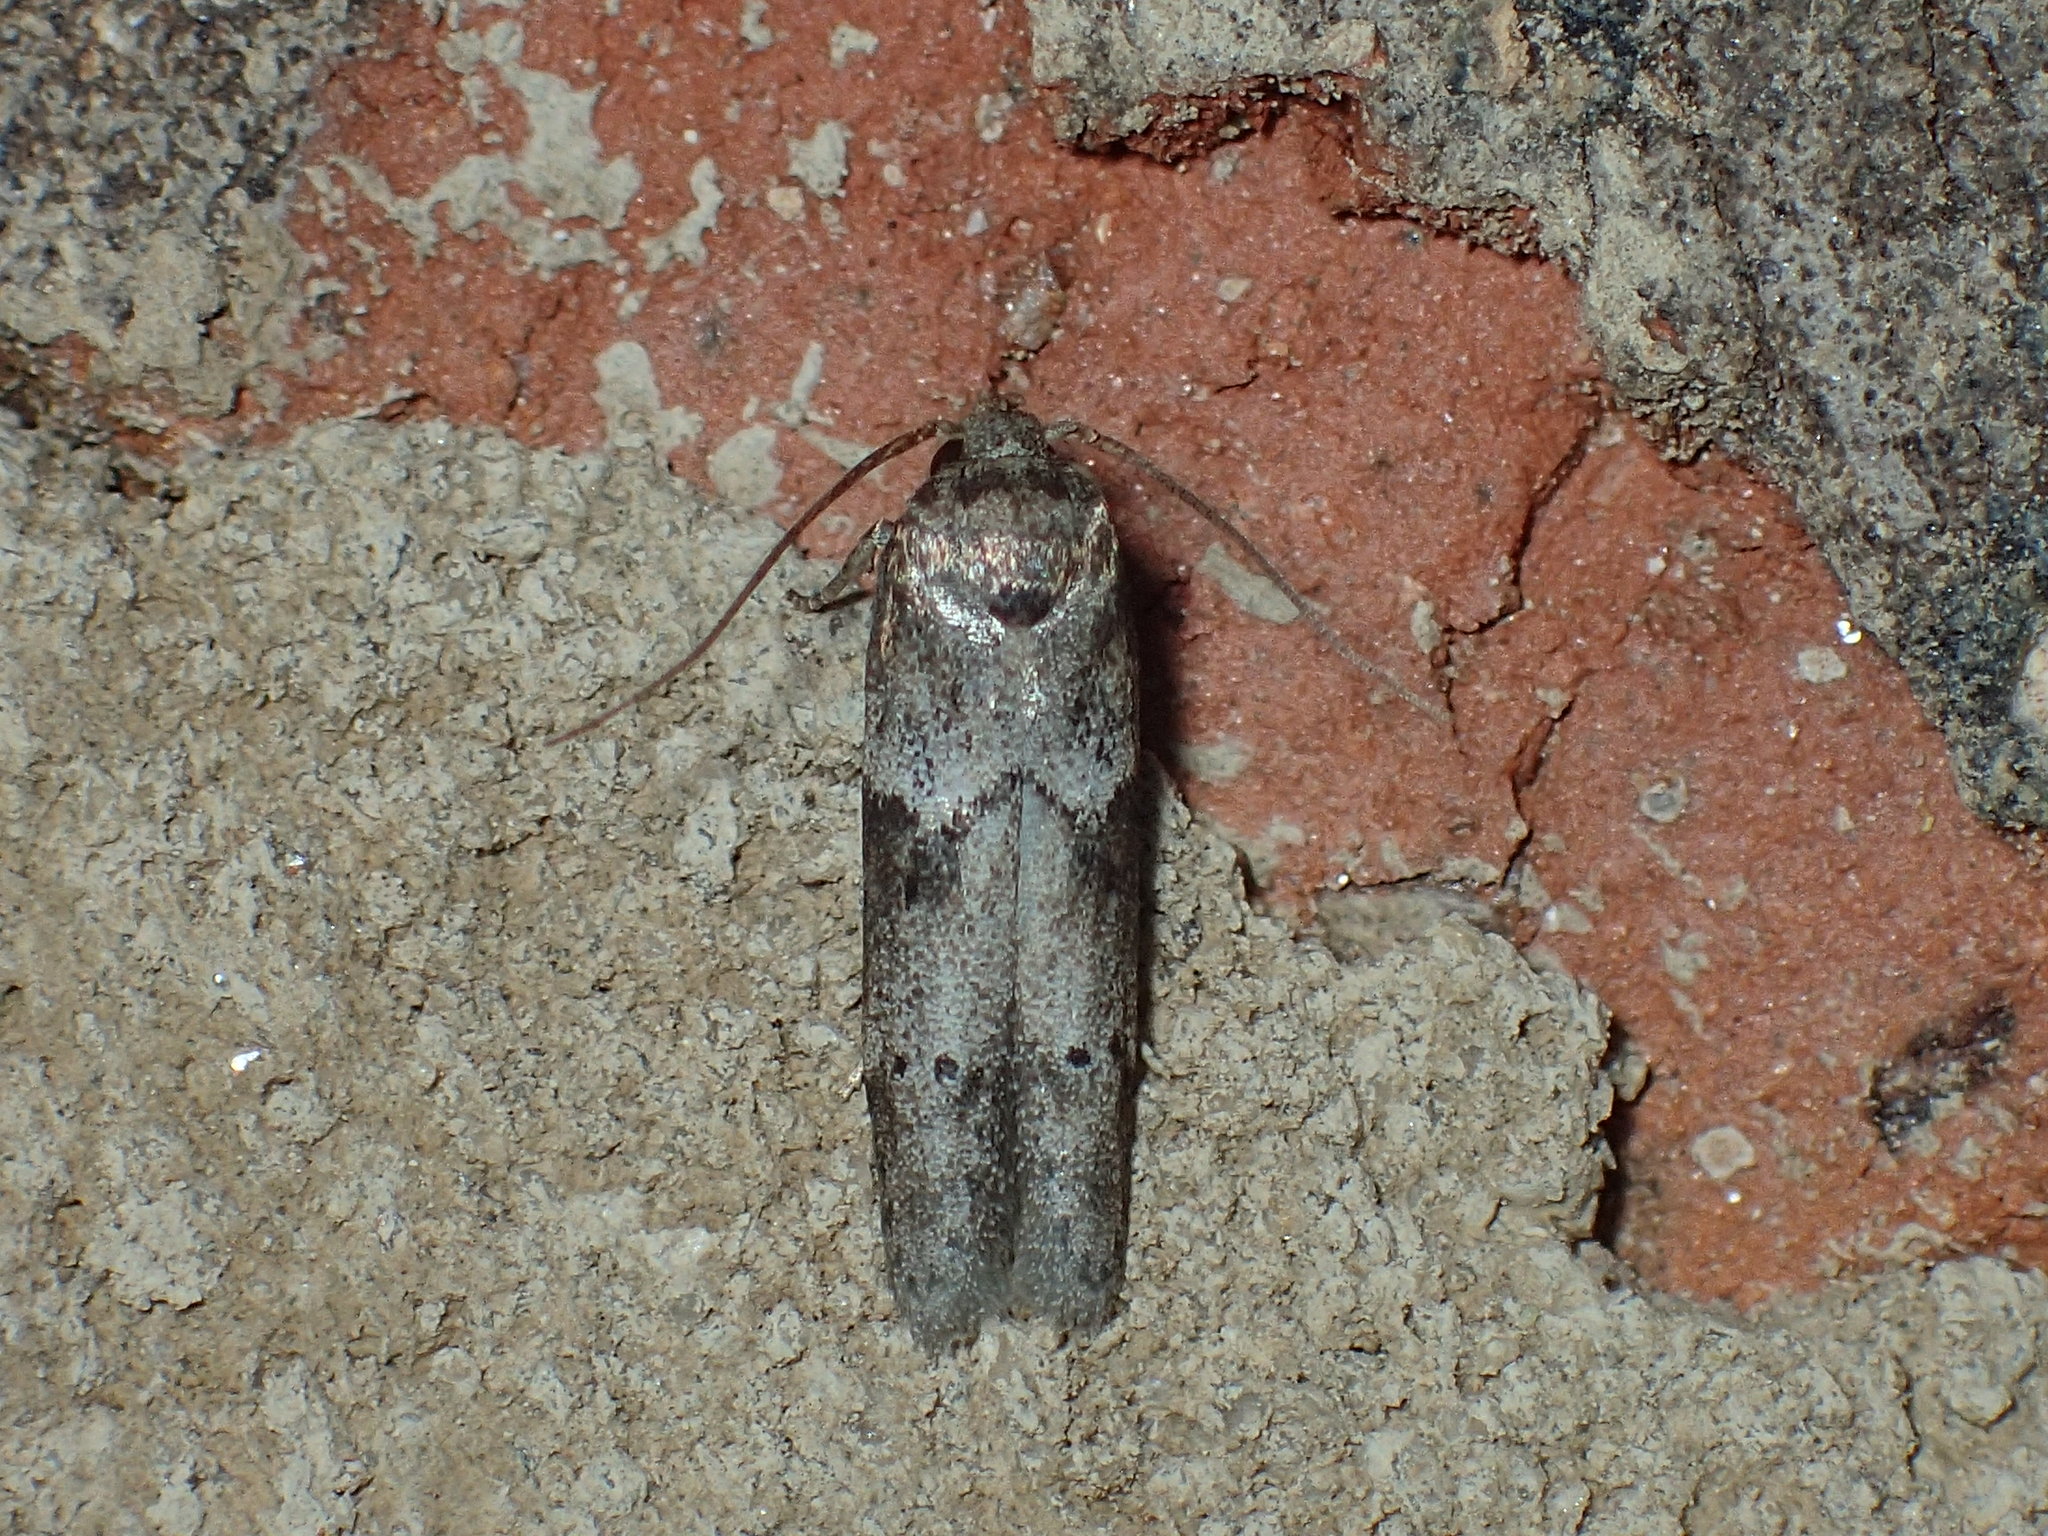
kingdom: Animalia
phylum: Arthropoda
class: Insecta
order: Lepidoptera
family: Blastobasidae
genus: Blastobasis
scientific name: Blastobasis glandulella
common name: Acorn moth
